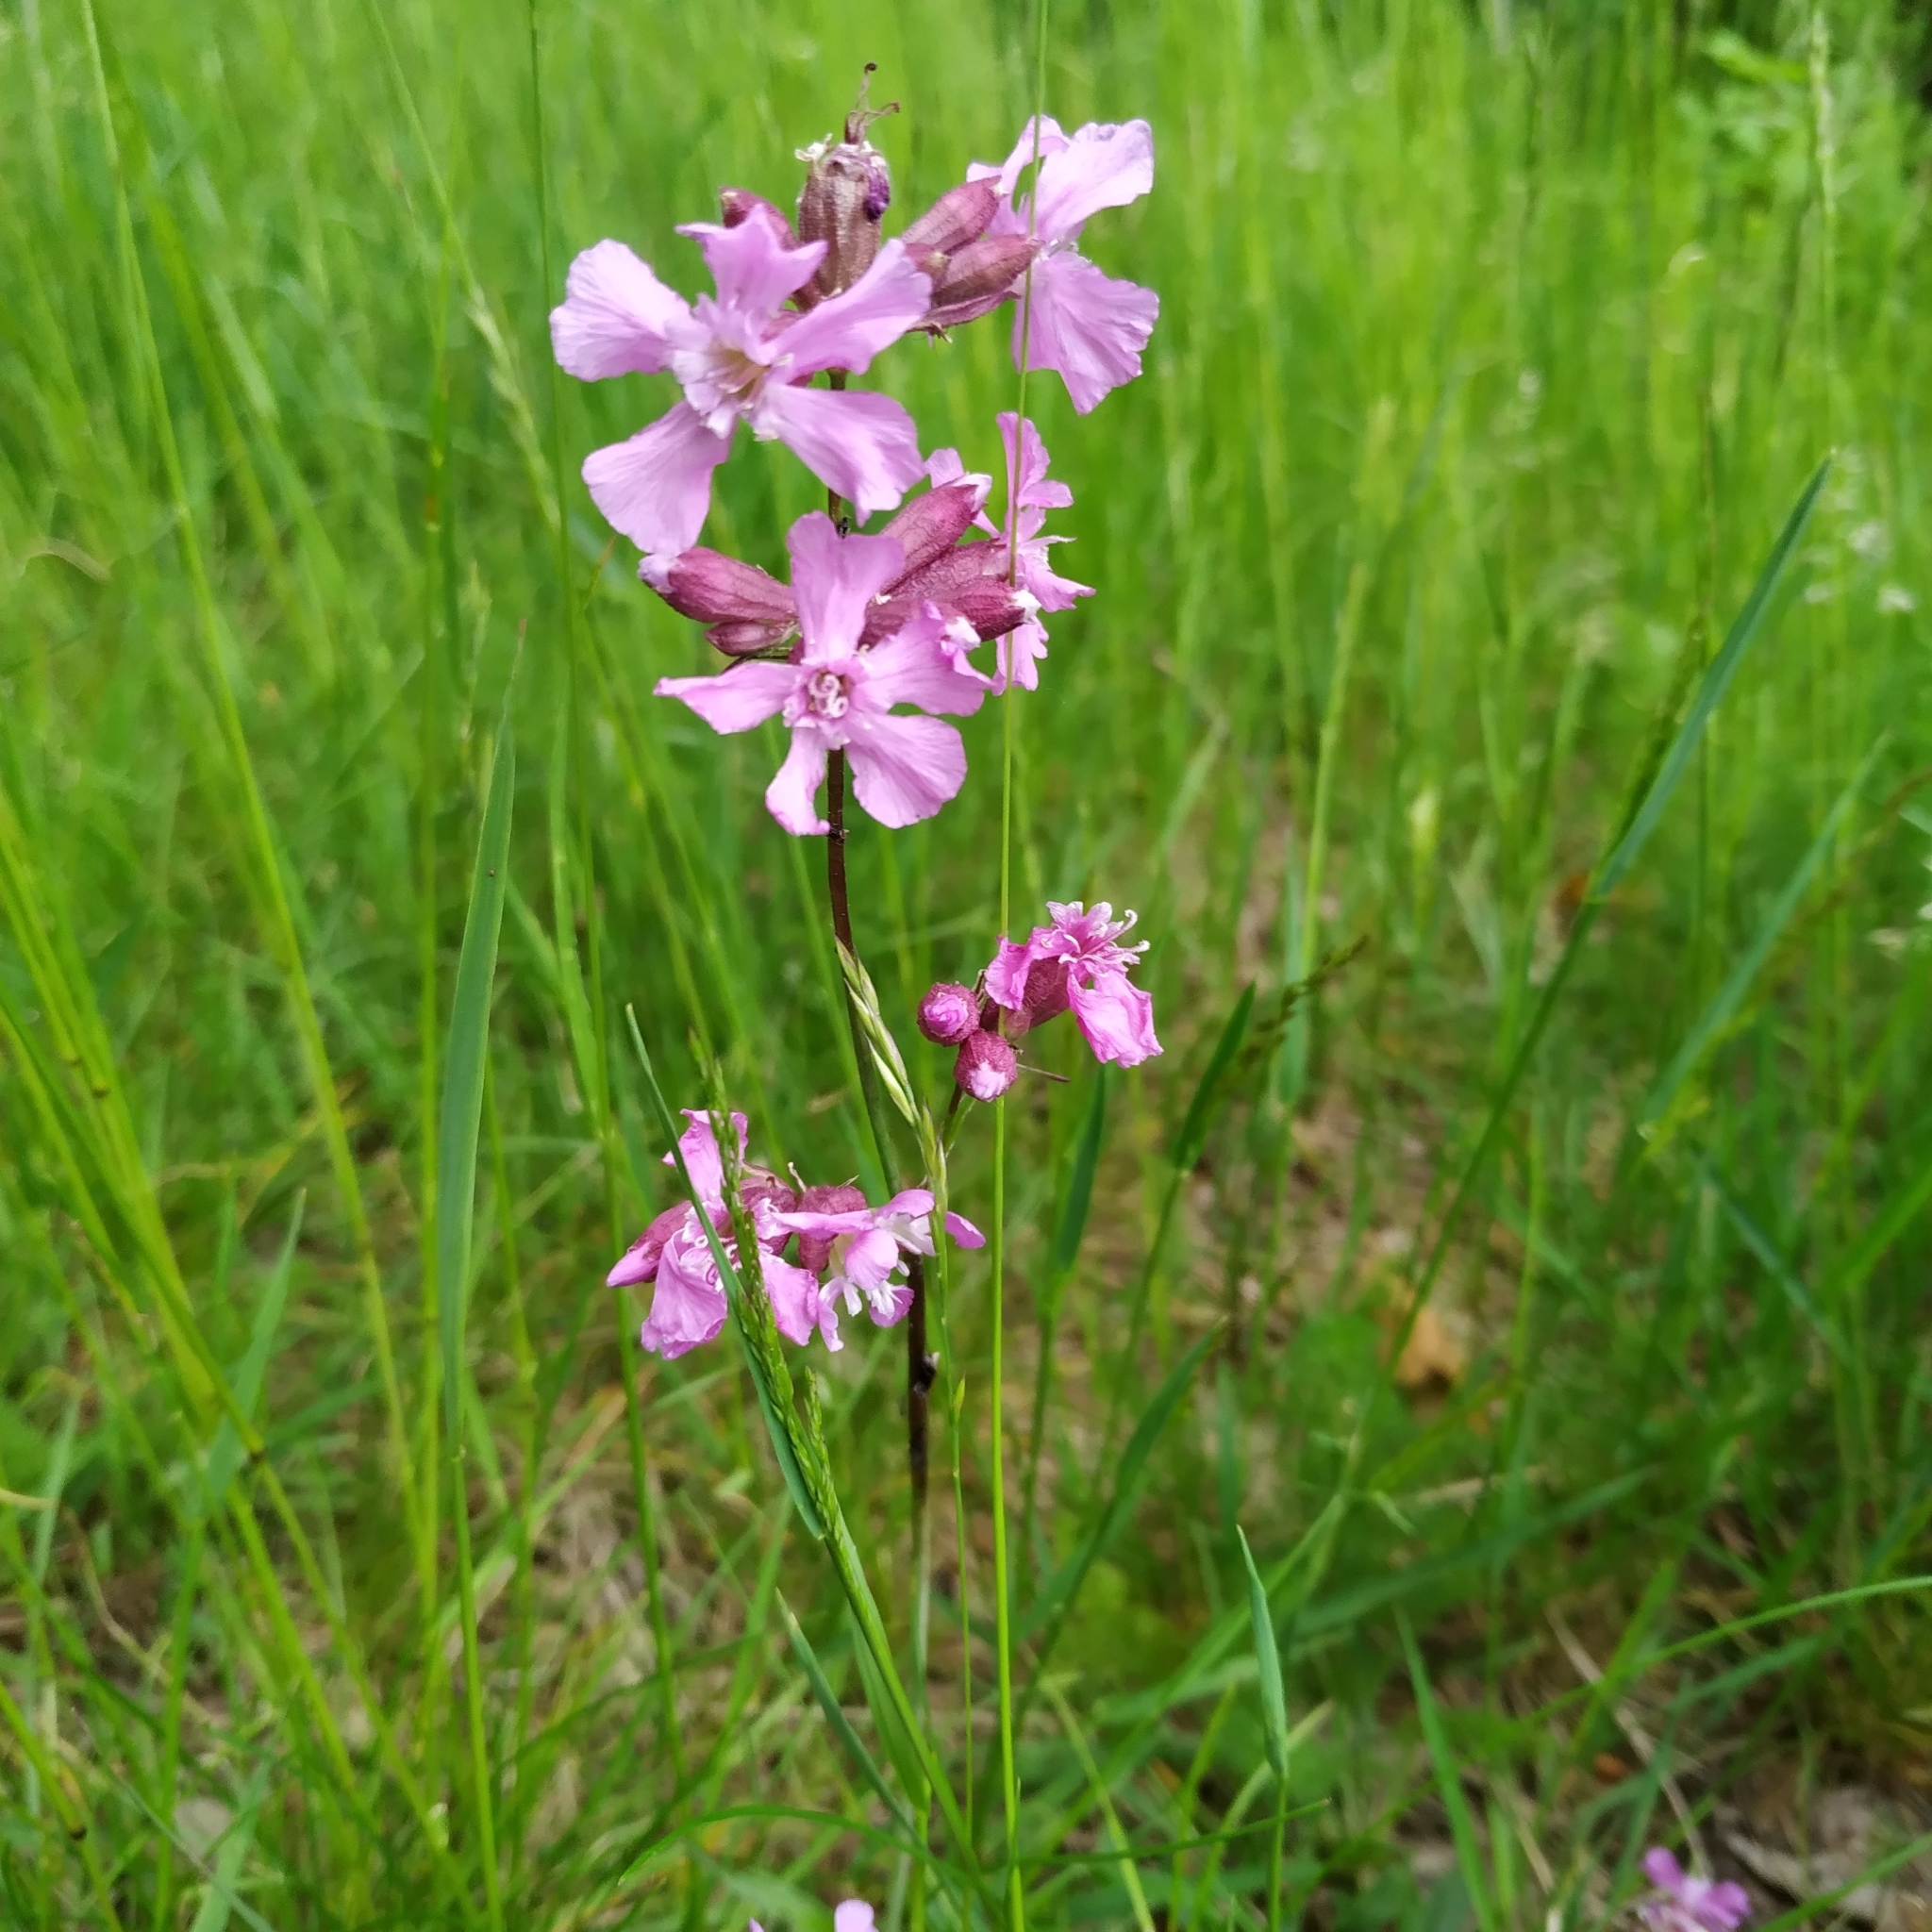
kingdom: Plantae
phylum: Tracheophyta
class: Magnoliopsida
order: Caryophyllales
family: Caryophyllaceae
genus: Viscaria
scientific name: Viscaria vulgaris
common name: Clammy campion
